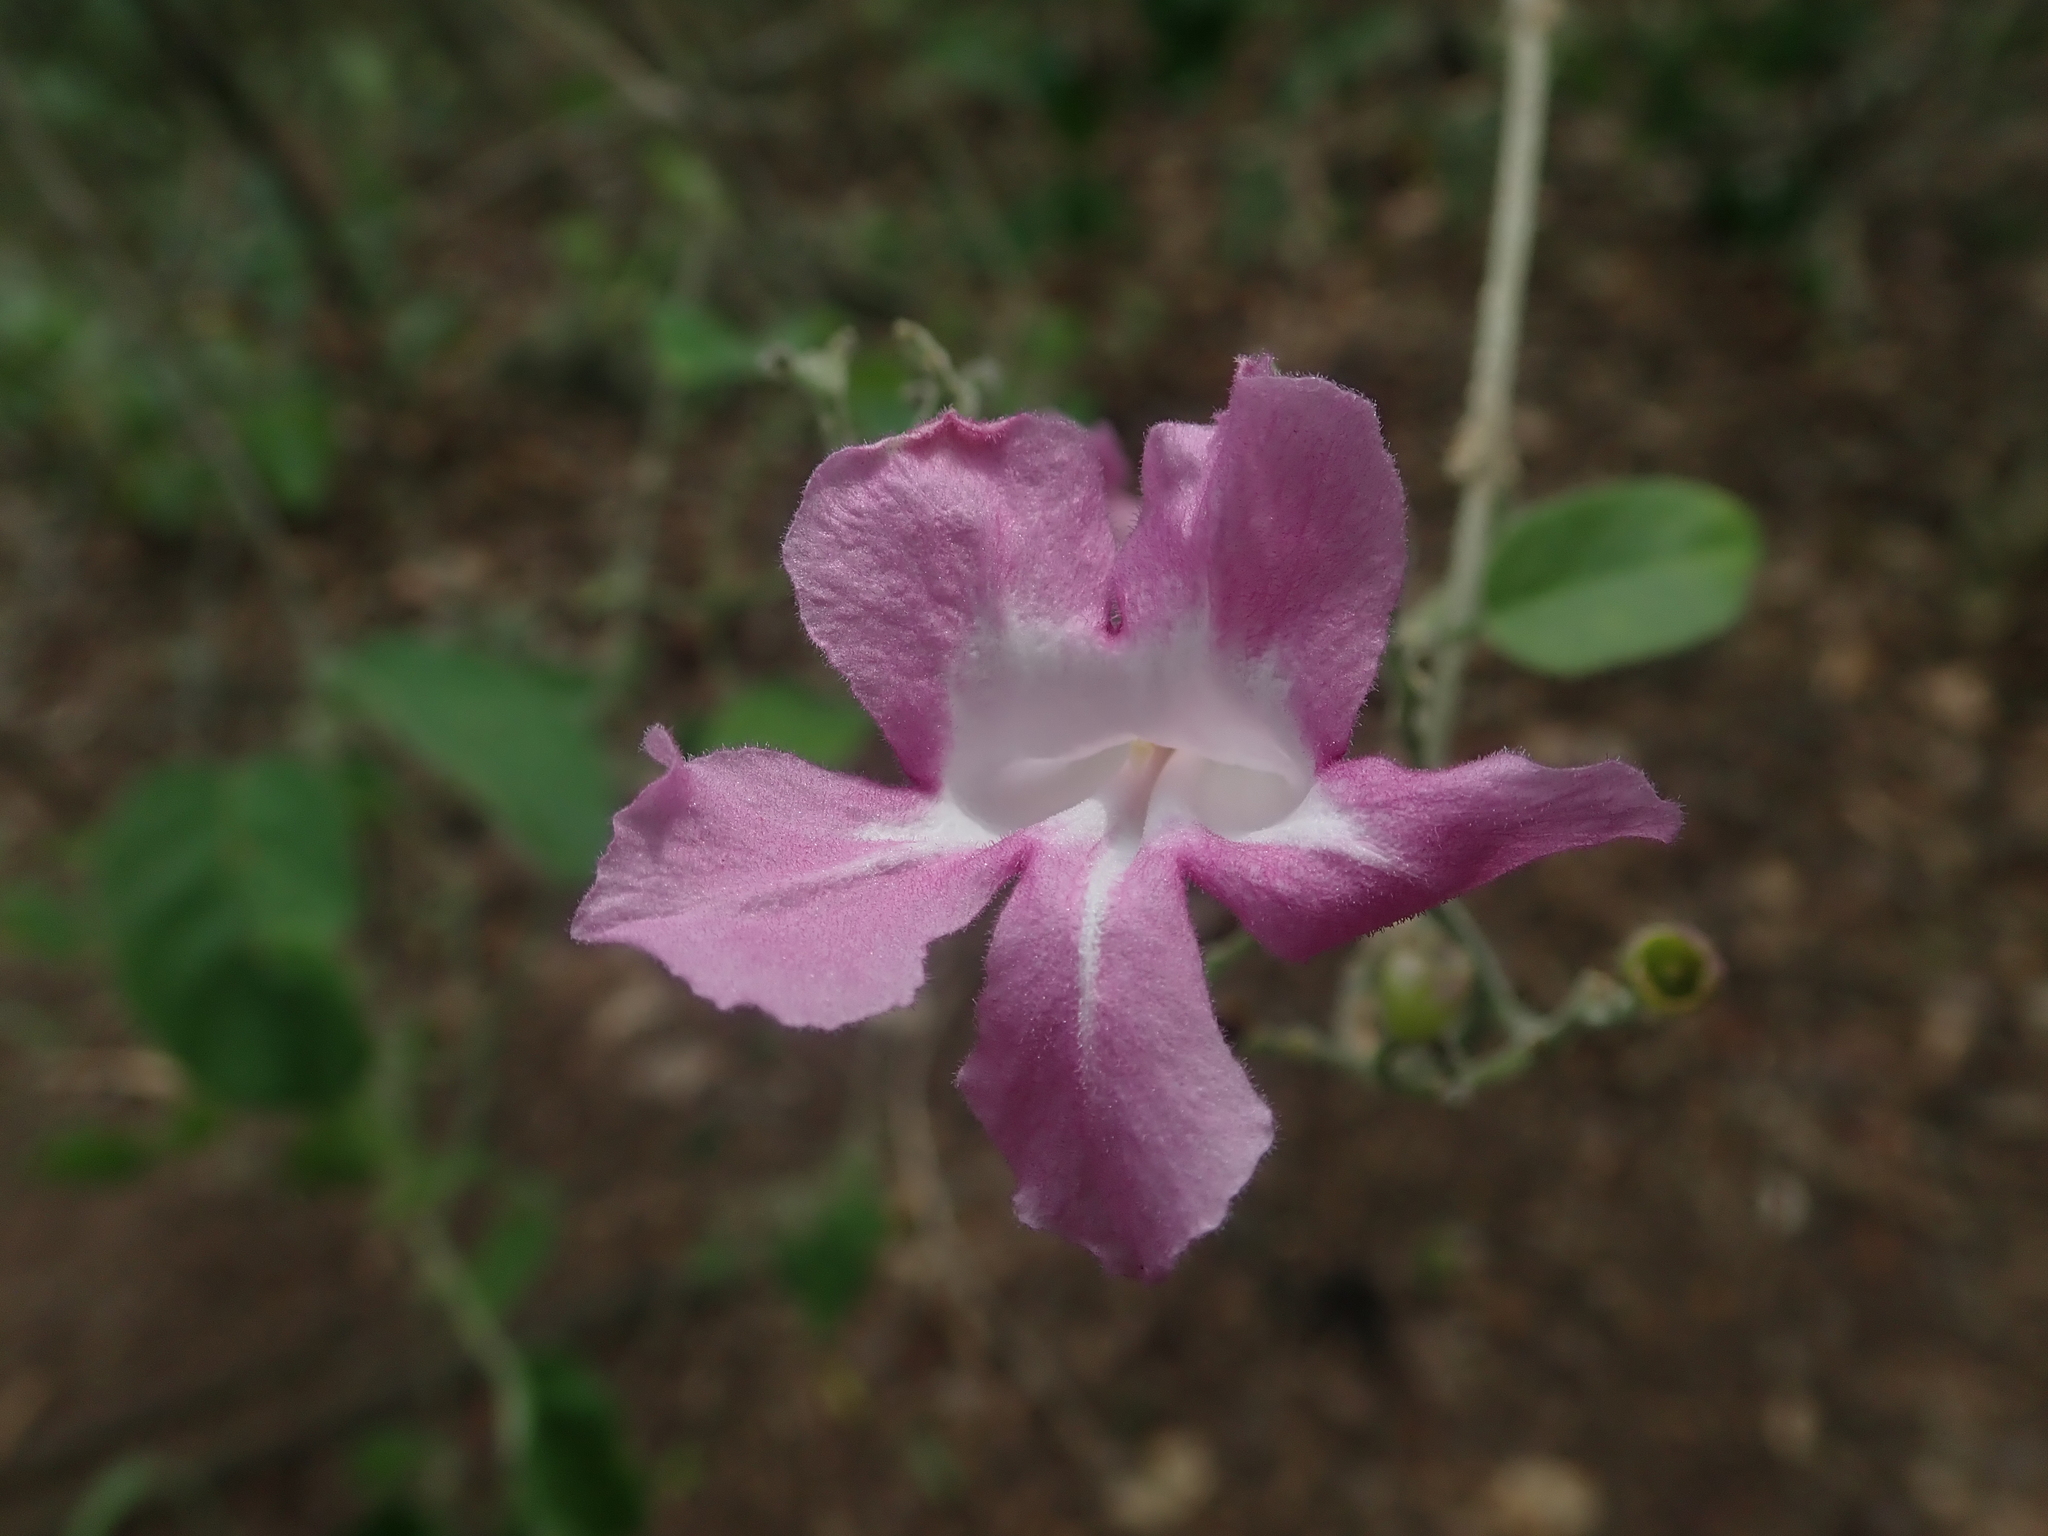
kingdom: Plantae
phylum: Tracheophyta
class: Magnoliopsida
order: Lamiales
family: Bignoniaceae
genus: Tanaecium
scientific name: Tanaecium dichotomum
